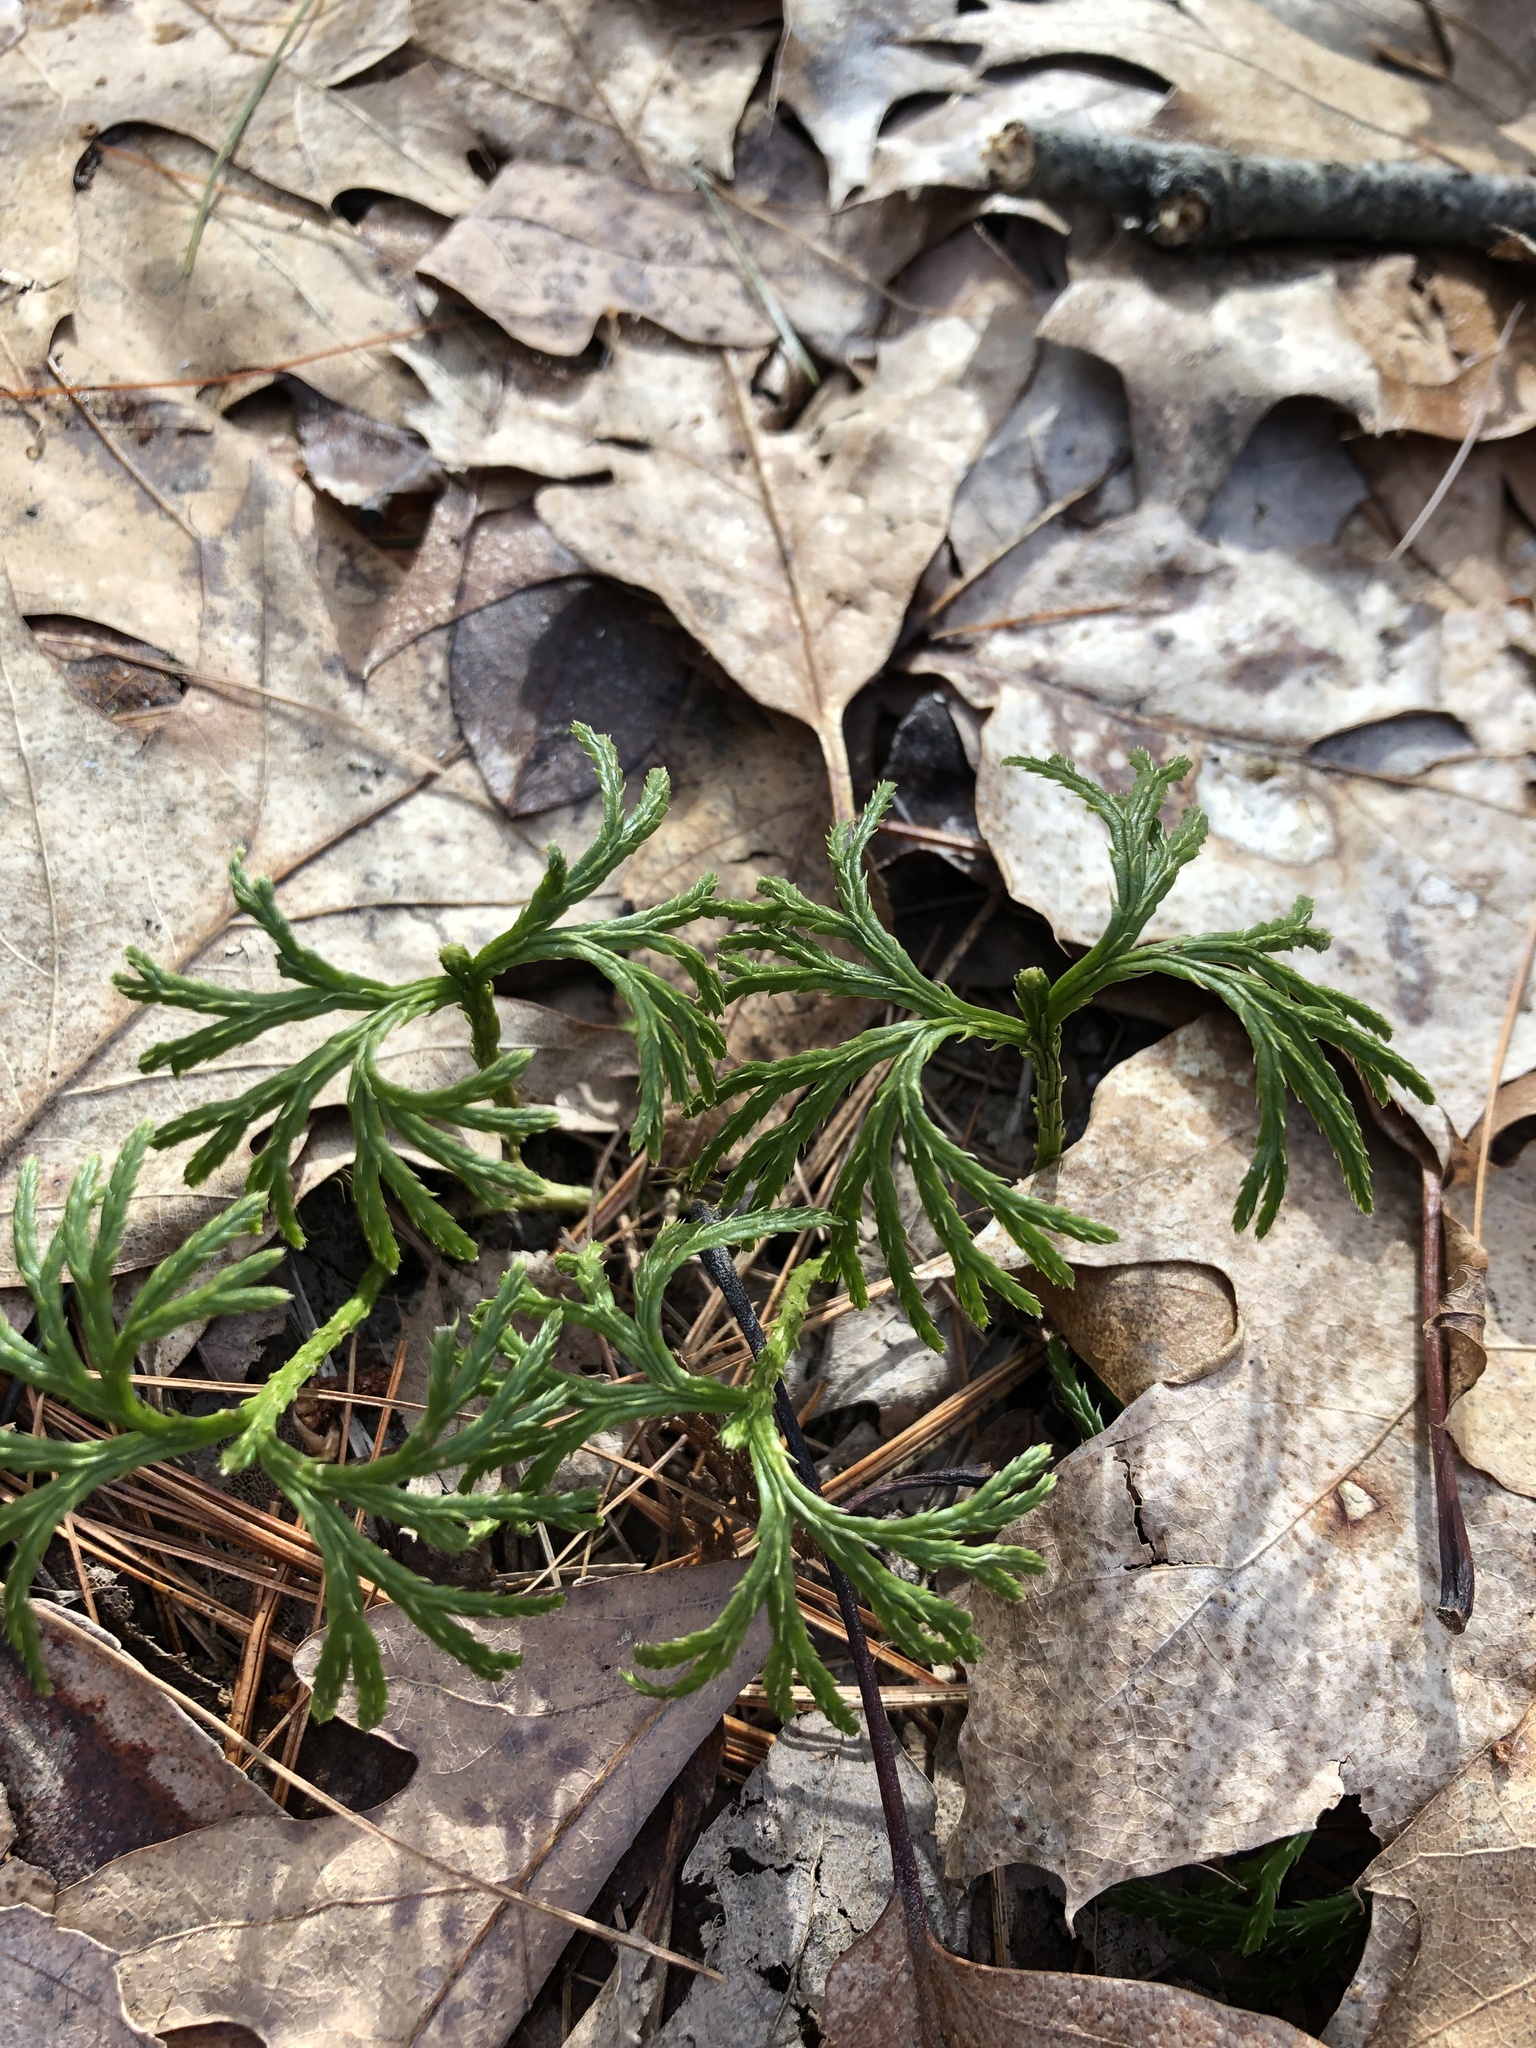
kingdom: Plantae
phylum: Tracheophyta
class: Lycopodiopsida
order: Lycopodiales
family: Lycopodiaceae
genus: Diphasiastrum
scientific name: Diphasiastrum digitatum
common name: Southern running-pine
